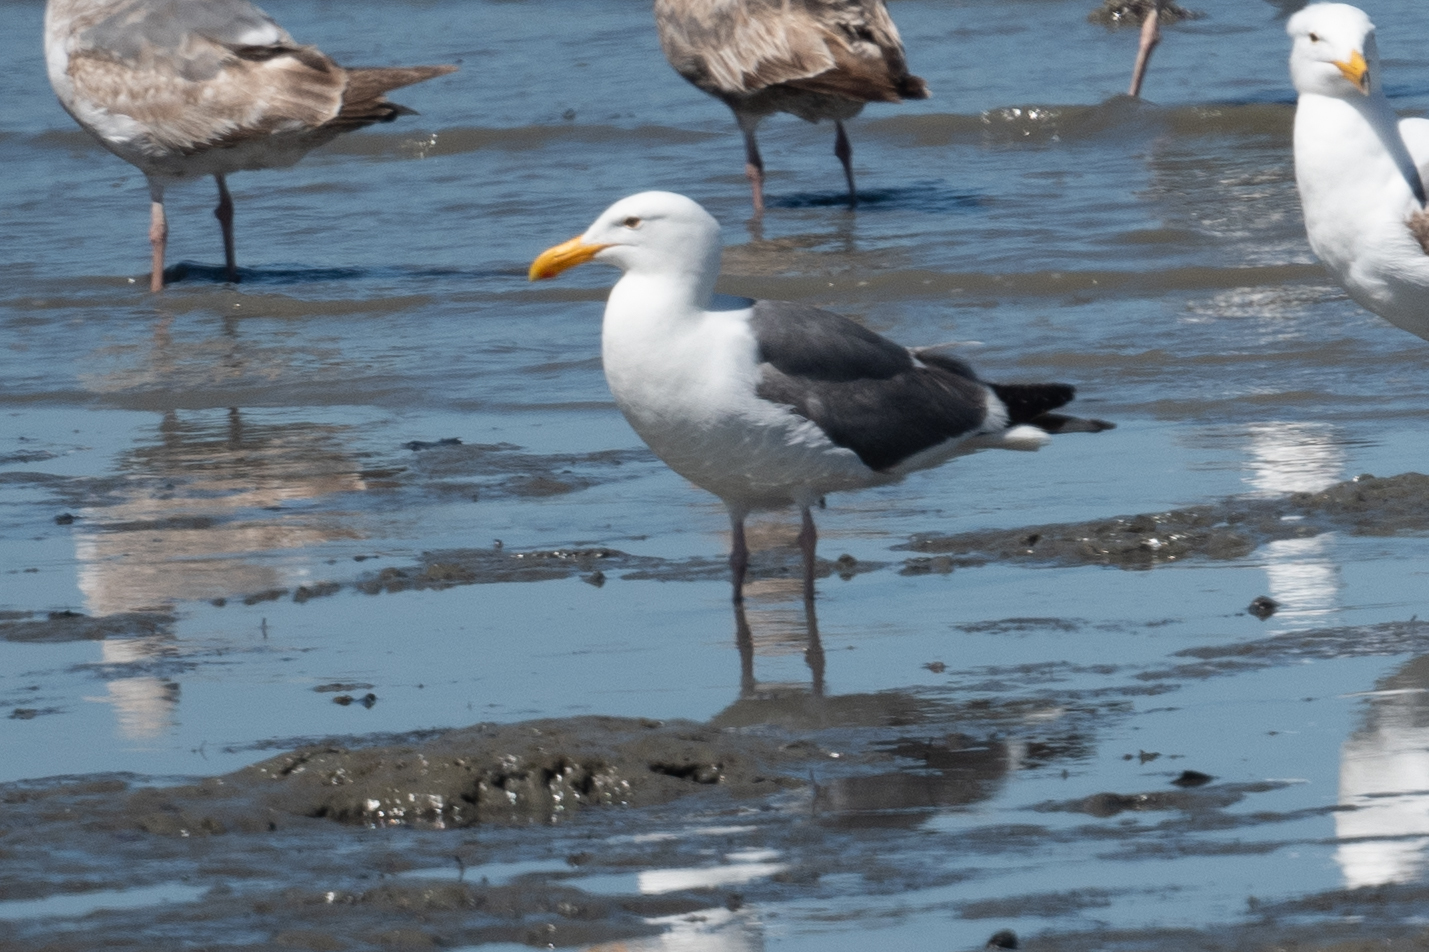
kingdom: Animalia
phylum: Chordata
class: Aves
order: Charadriiformes
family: Laridae
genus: Larus
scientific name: Larus occidentalis
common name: Western gull
